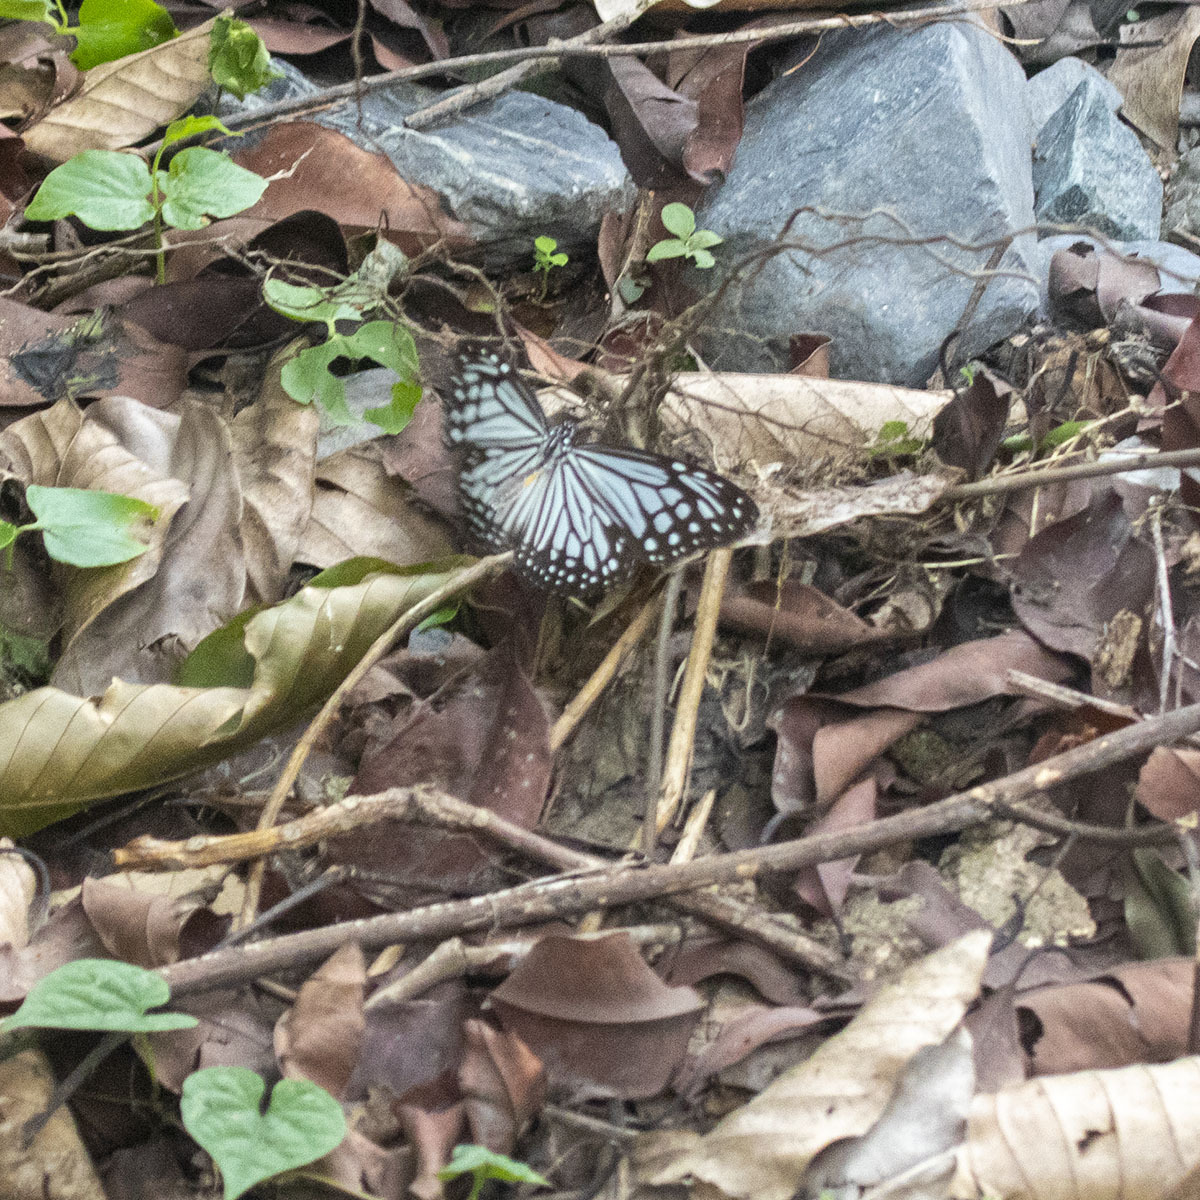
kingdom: Animalia
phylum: Arthropoda
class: Insecta
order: Lepidoptera
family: Nymphalidae
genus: Parantica
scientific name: Parantica aglea
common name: Glassy tiger
